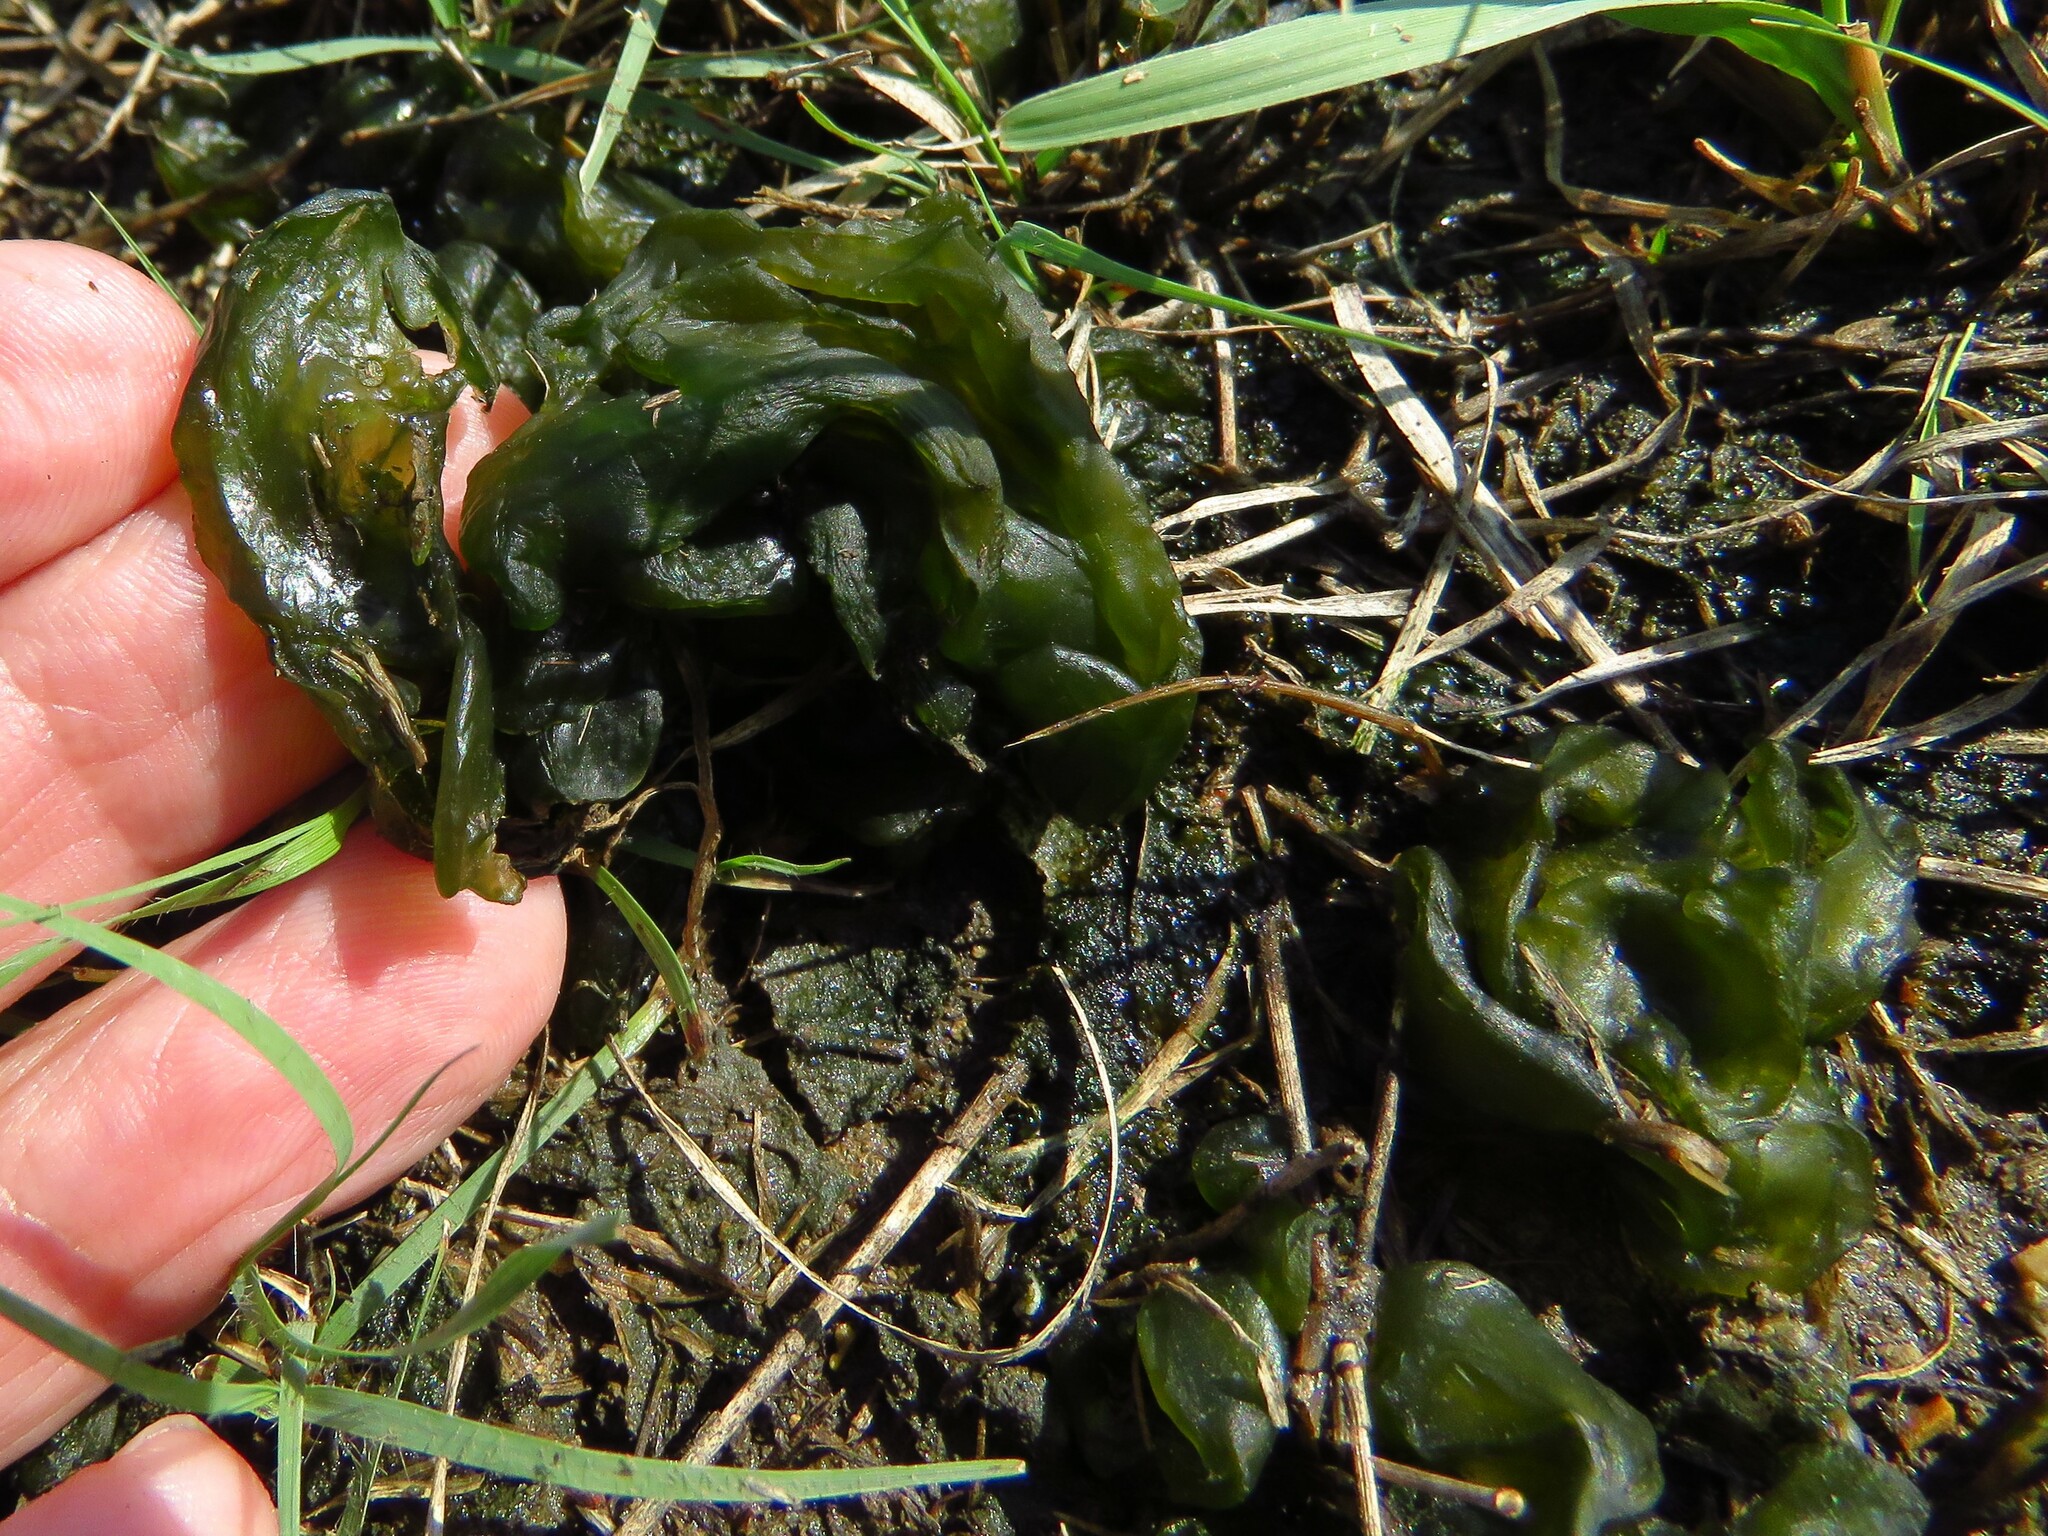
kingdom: Bacteria
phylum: Cyanobacteria
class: Cyanobacteriia
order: Cyanobacteriales
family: Nostocaceae
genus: Nostoc
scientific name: Nostoc commune
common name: Star jelly
